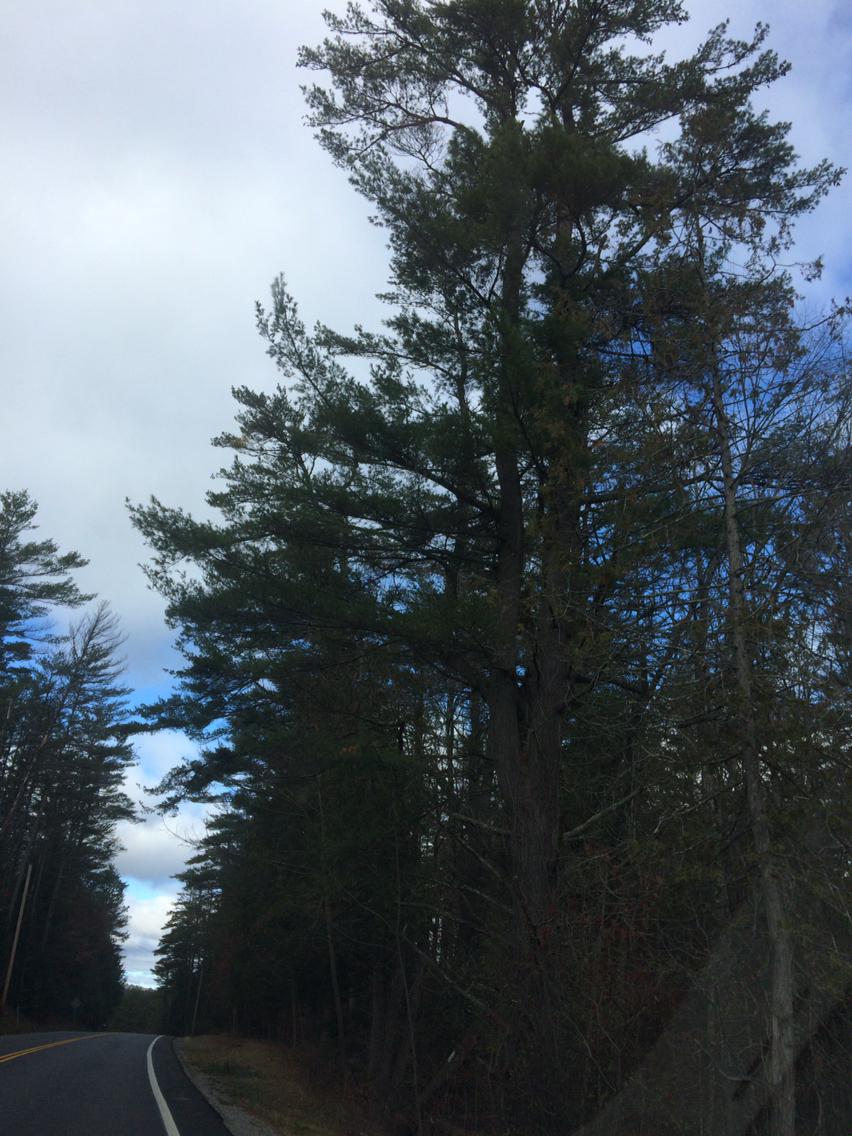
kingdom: Plantae
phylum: Tracheophyta
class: Pinopsida
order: Pinales
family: Pinaceae
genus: Pinus
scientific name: Pinus strobus
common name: Weymouth pine
